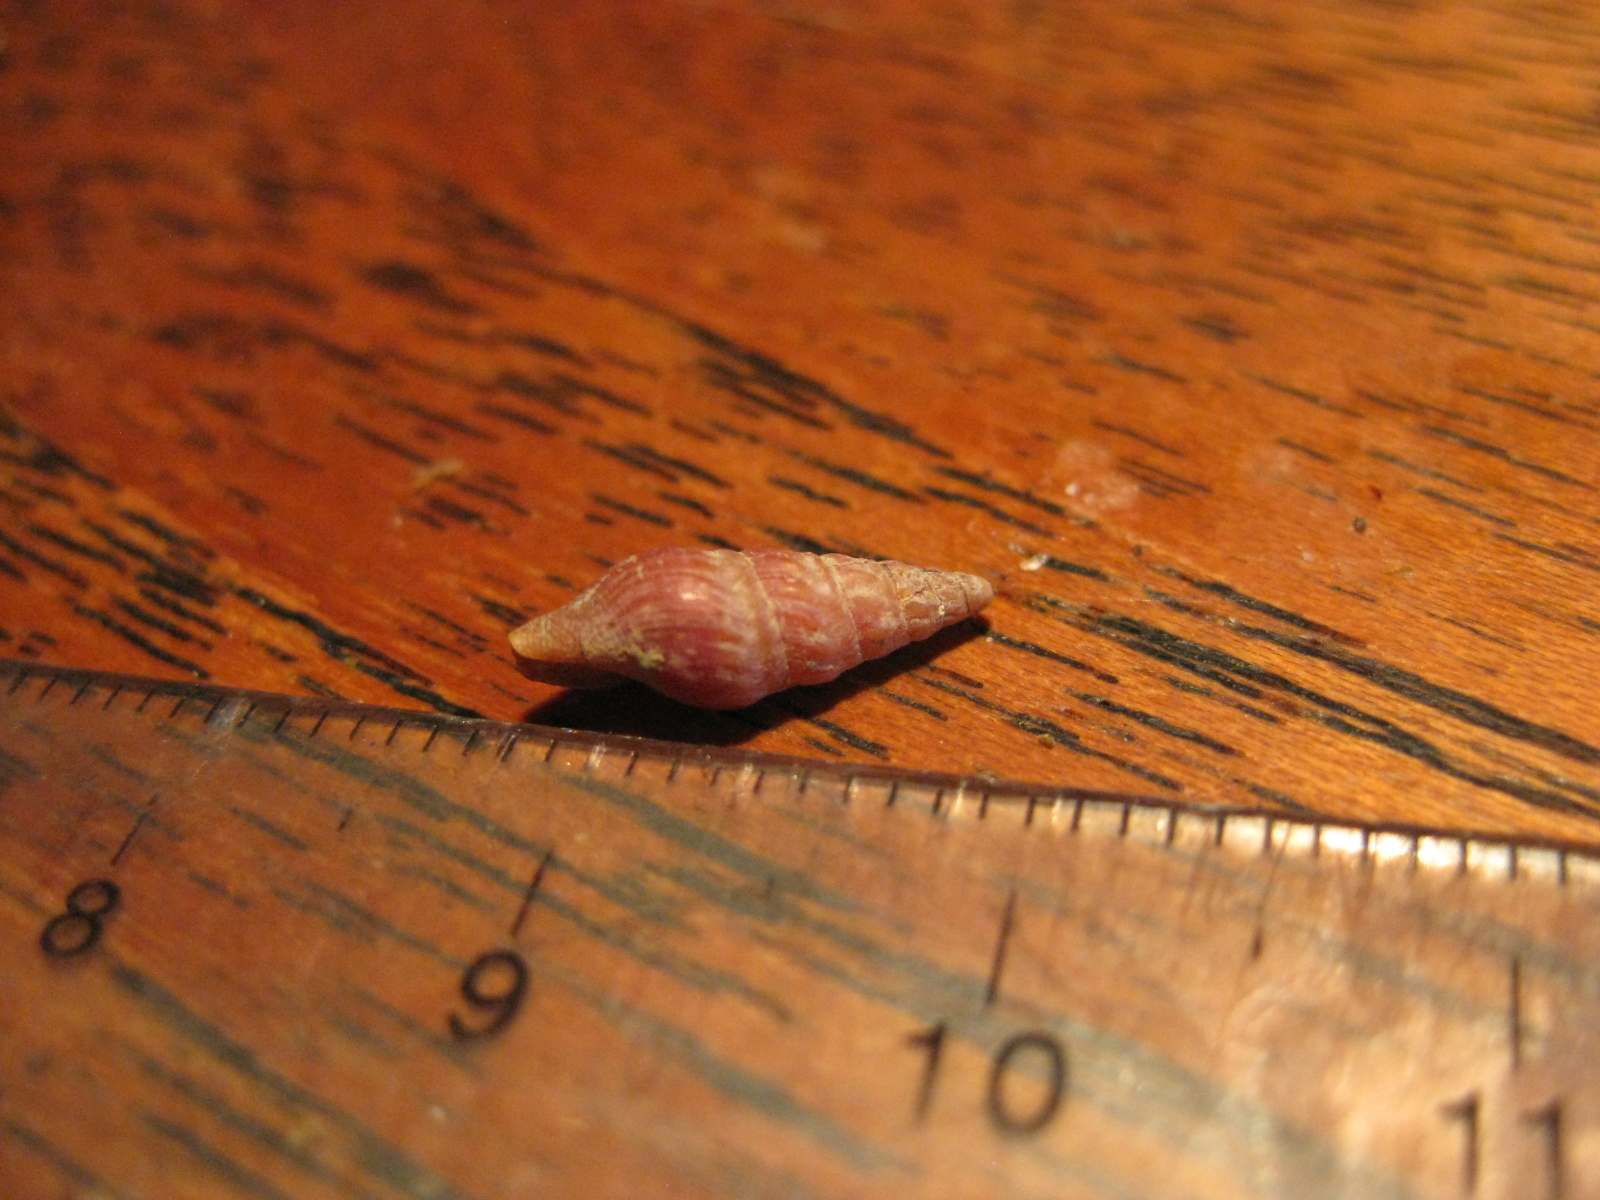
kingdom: Animalia
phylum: Mollusca
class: Gastropoda
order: Neogastropoda
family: Drilliidae
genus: Splendrillia
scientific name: Splendrillia larochei
